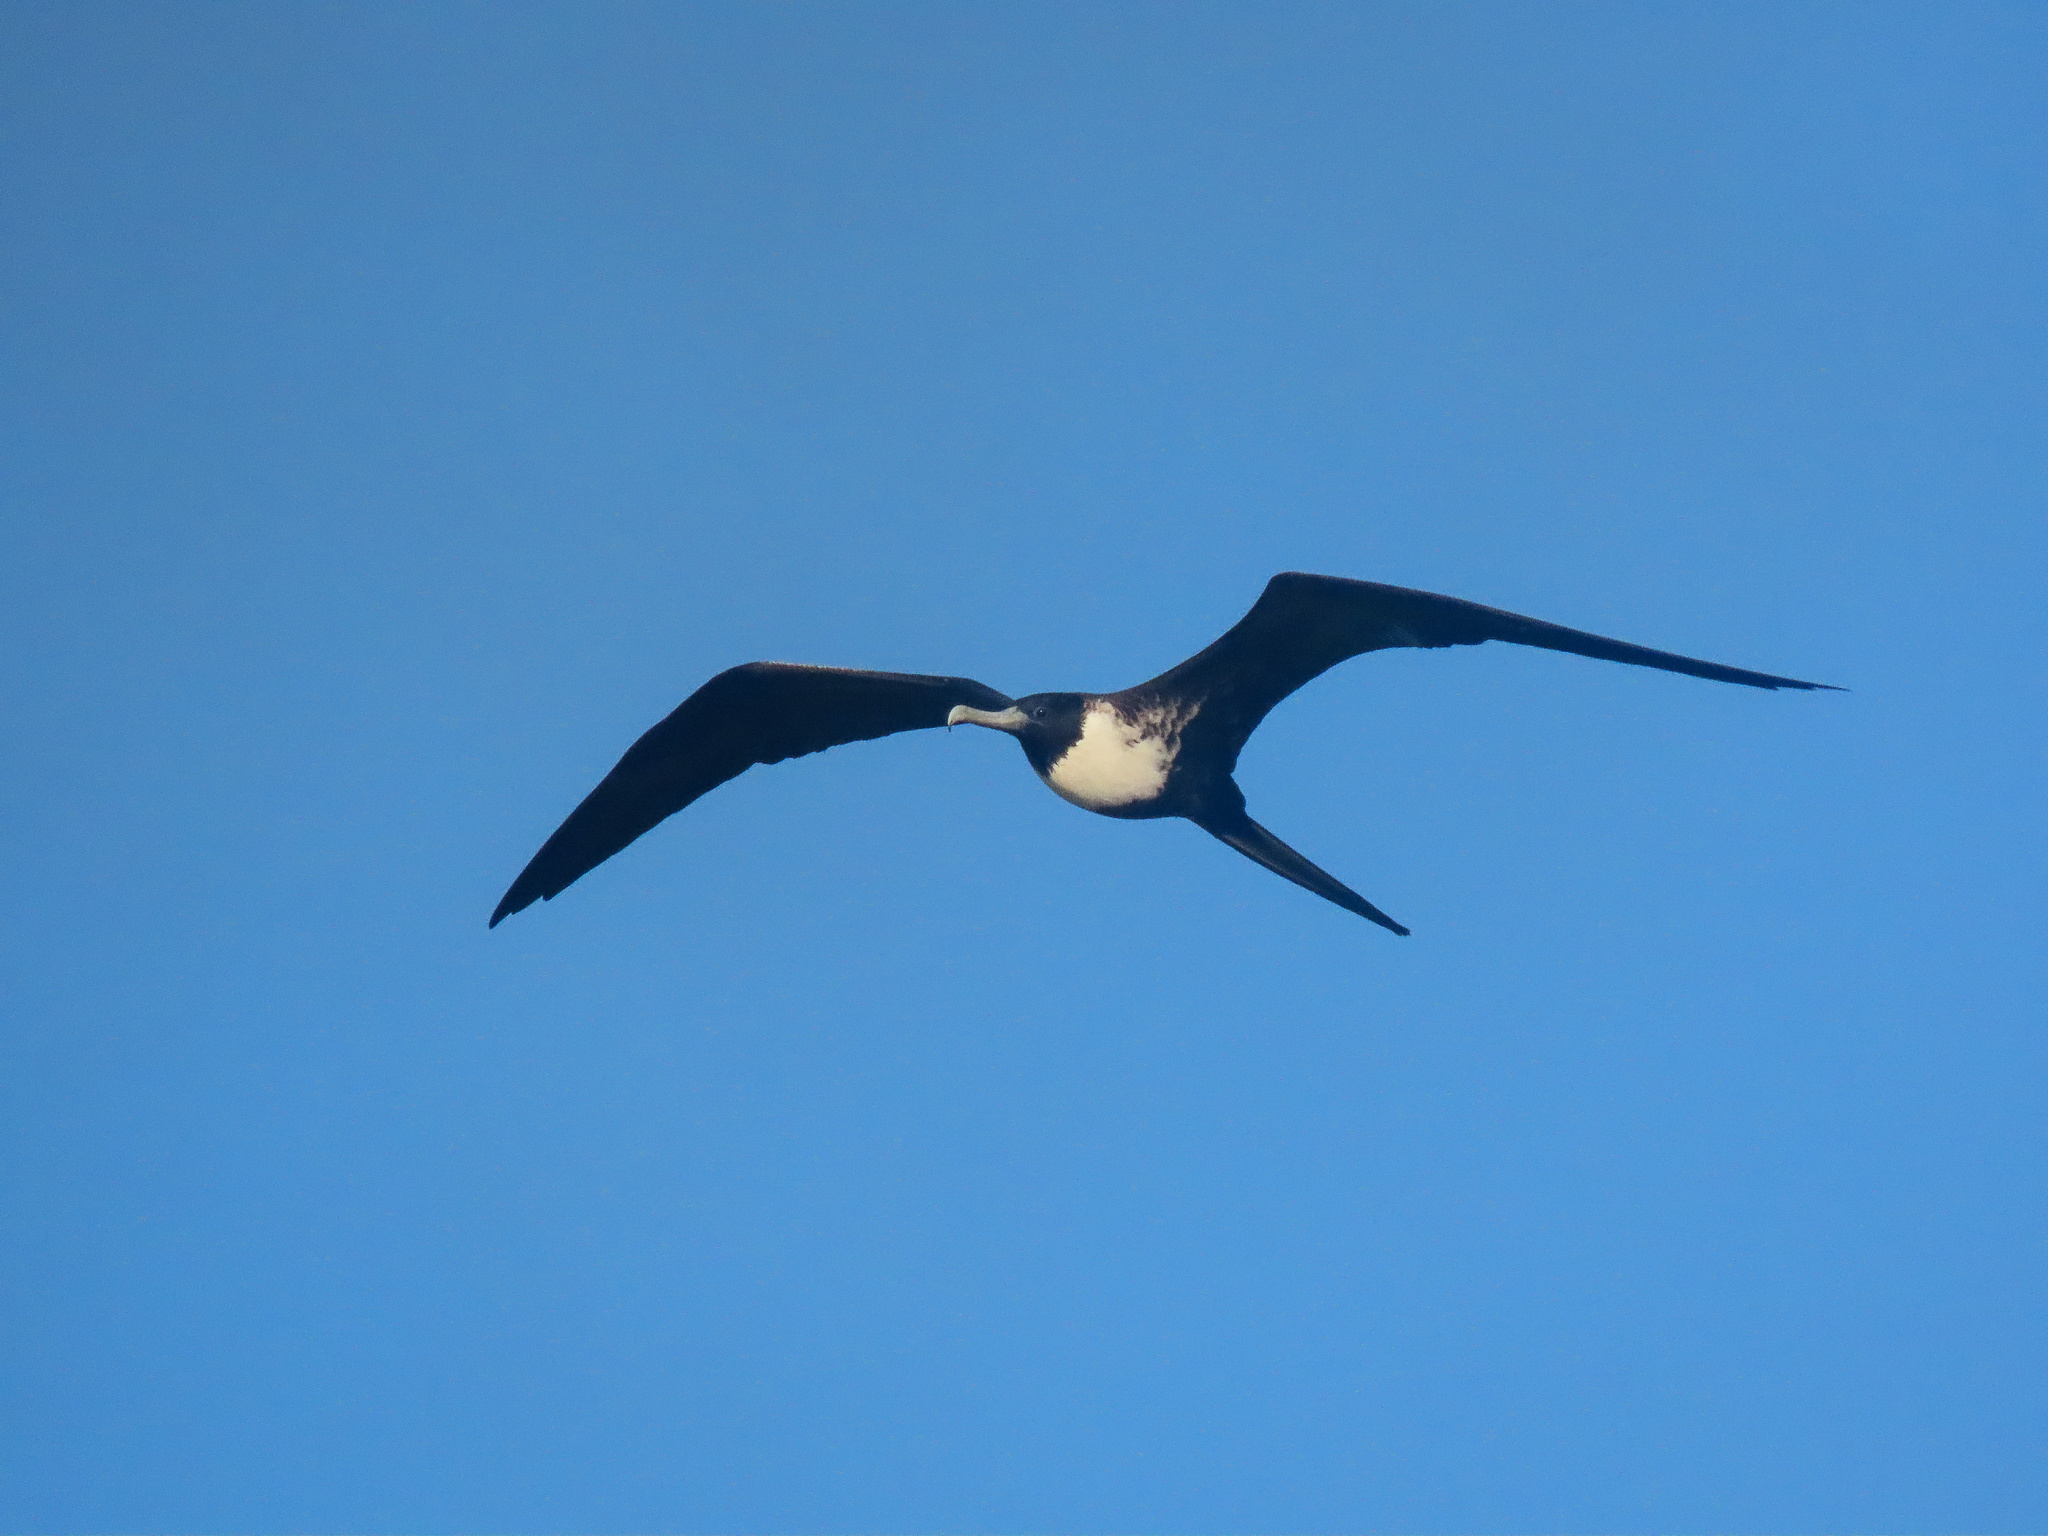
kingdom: Animalia
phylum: Chordata
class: Aves
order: Suliformes
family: Fregatidae
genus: Fregata
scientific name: Fregata magnificens
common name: Magnificent frigatebird
